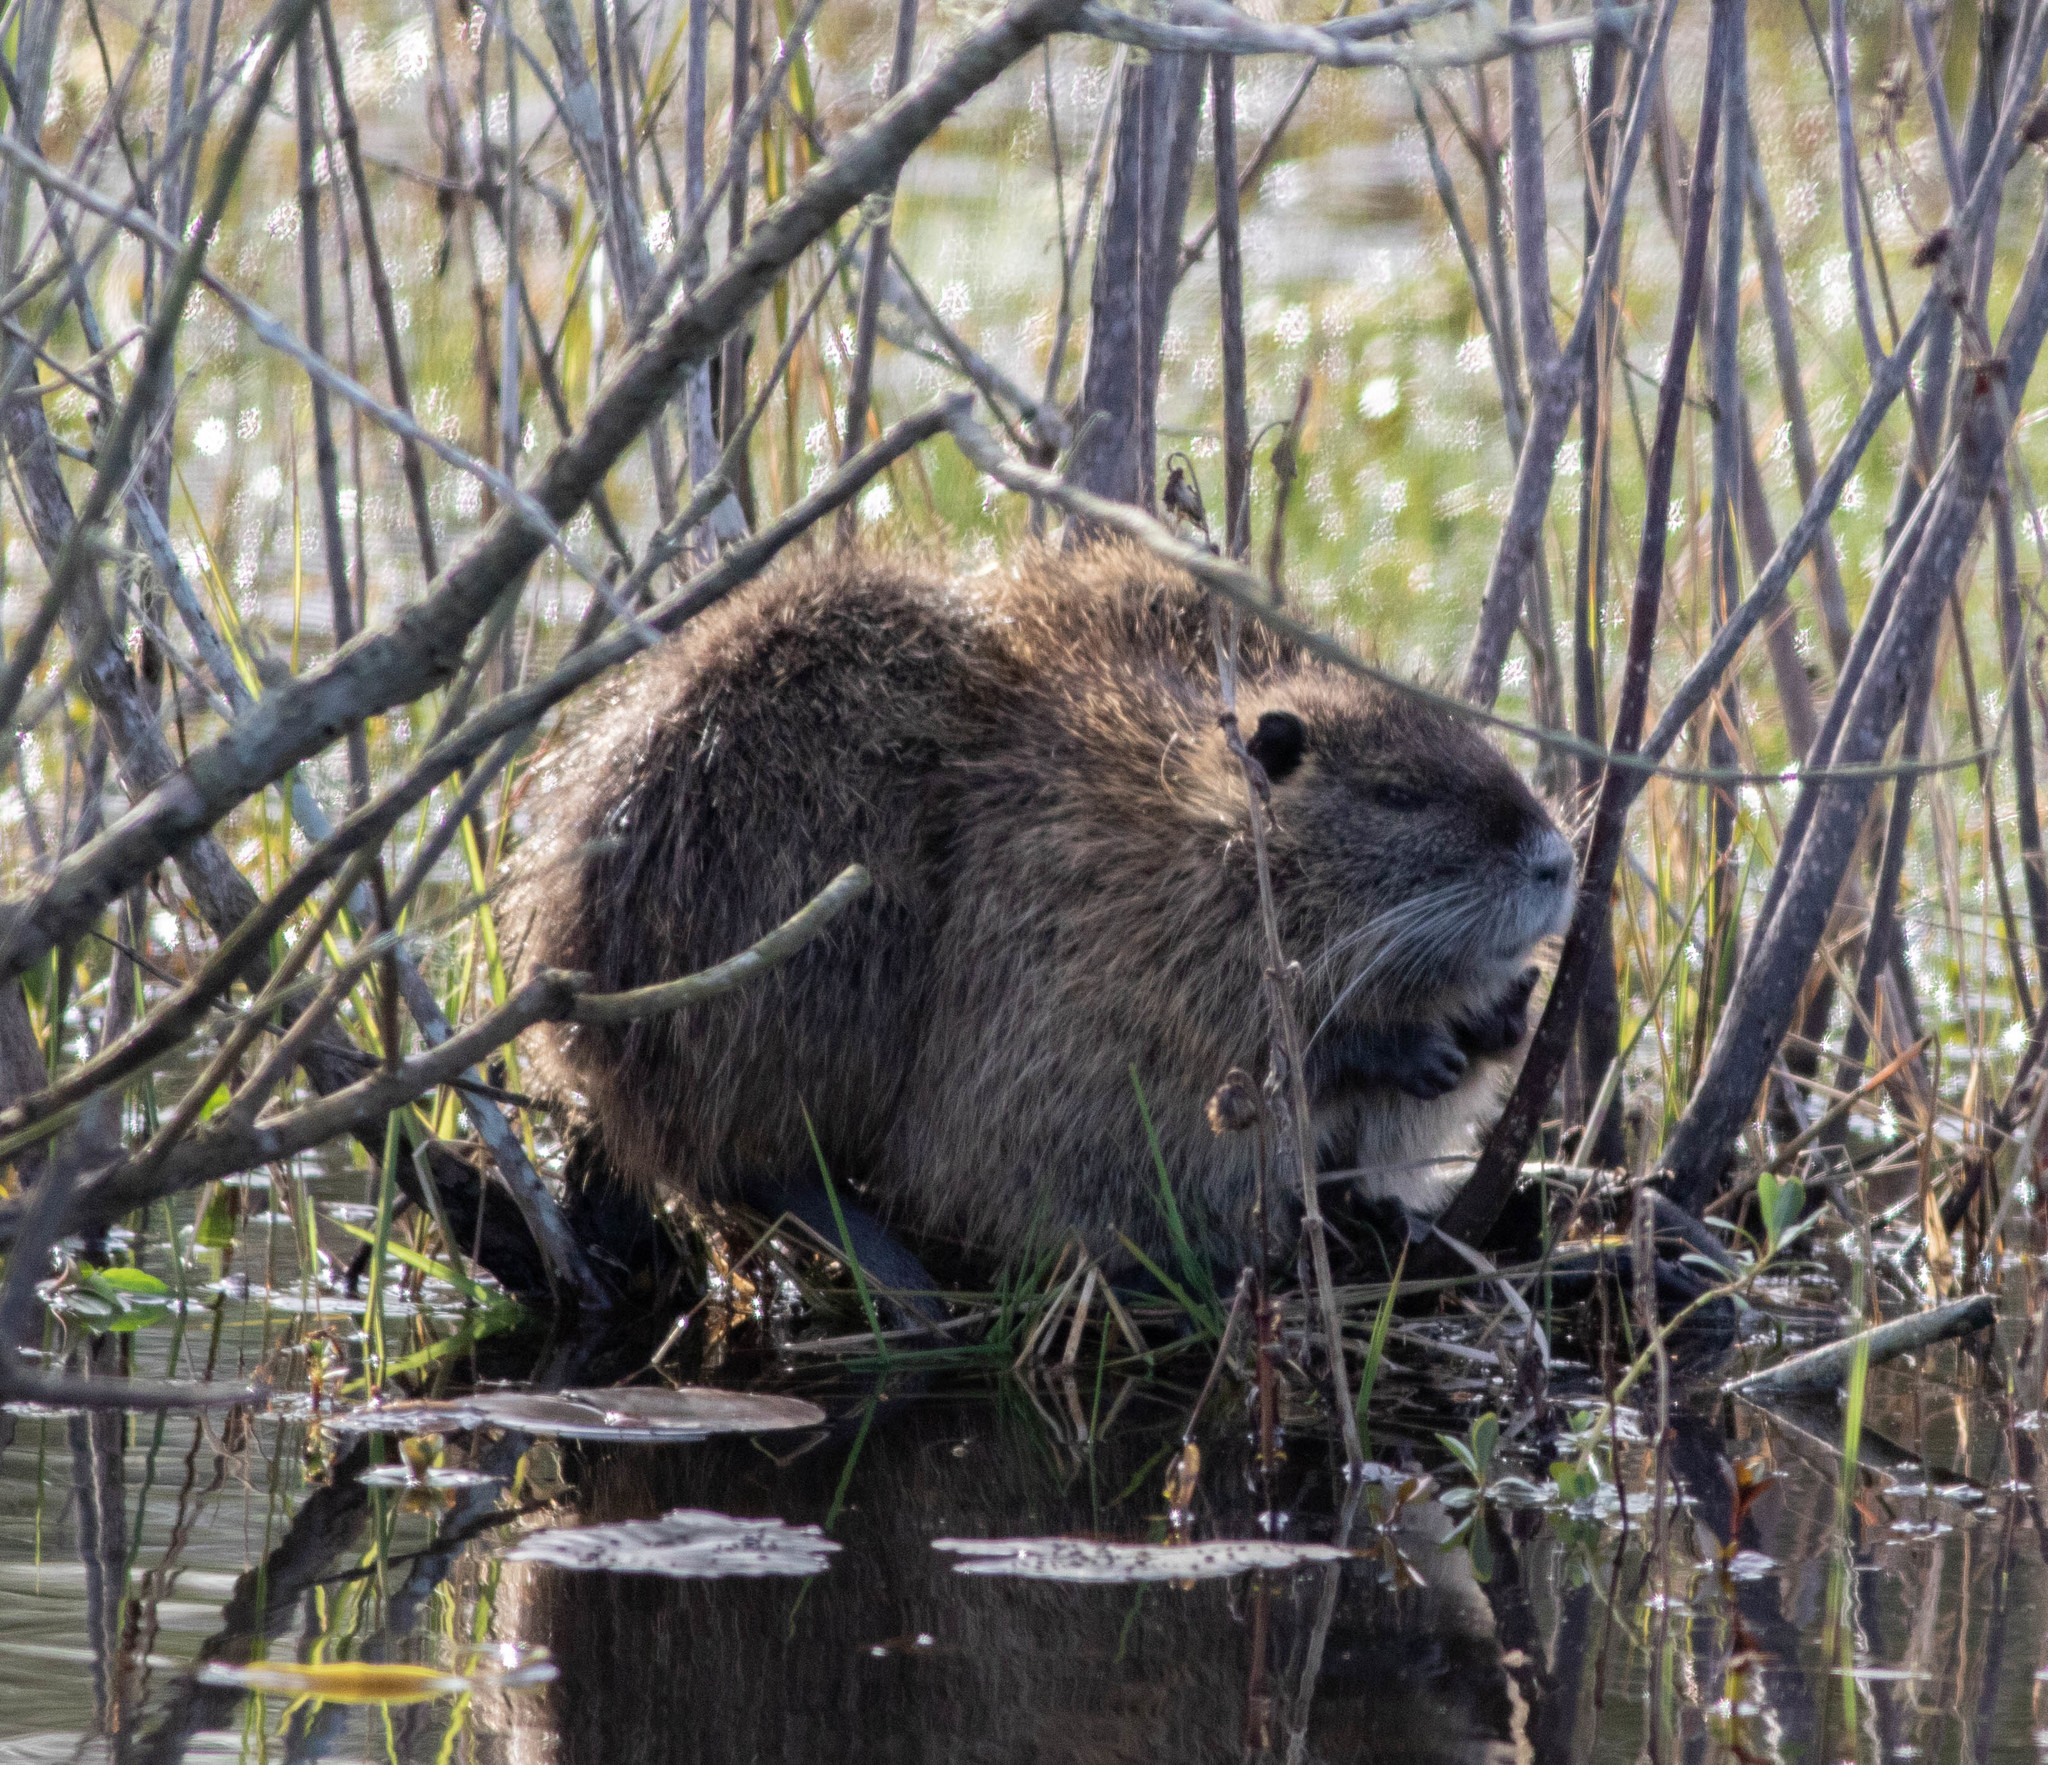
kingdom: Animalia
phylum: Chordata
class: Mammalia
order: Rodentia
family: Myocastoridae
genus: Myocastor
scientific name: Myocastor coypus
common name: Coypu
